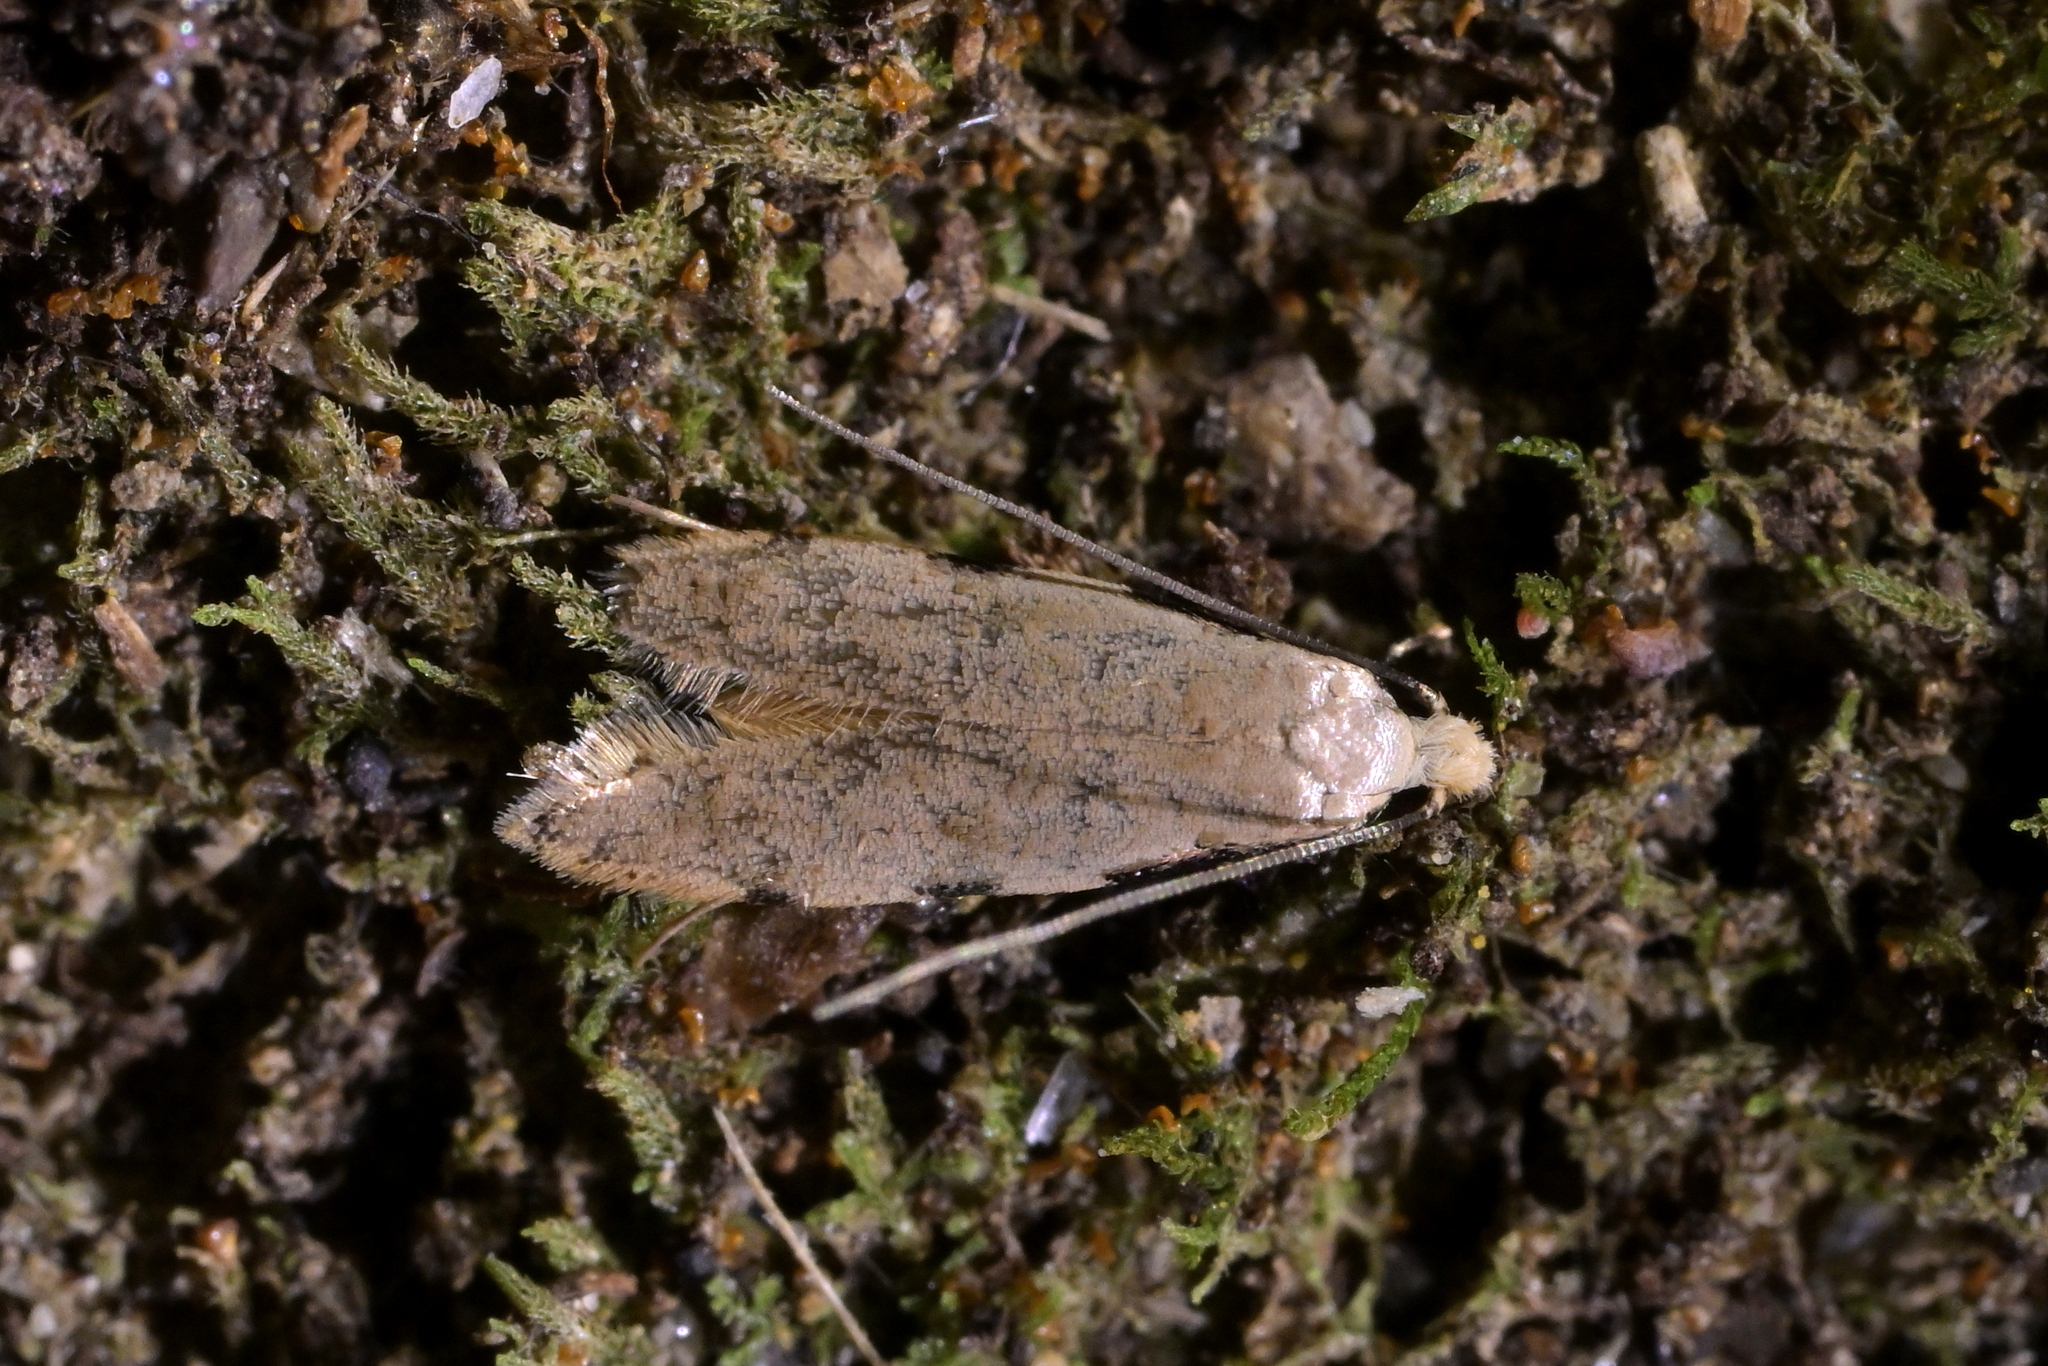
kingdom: Animalia
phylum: Arthropoda
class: Insecta
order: Lepidoptera
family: Tineidae
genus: Endophthora
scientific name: Endophthora omogramma
